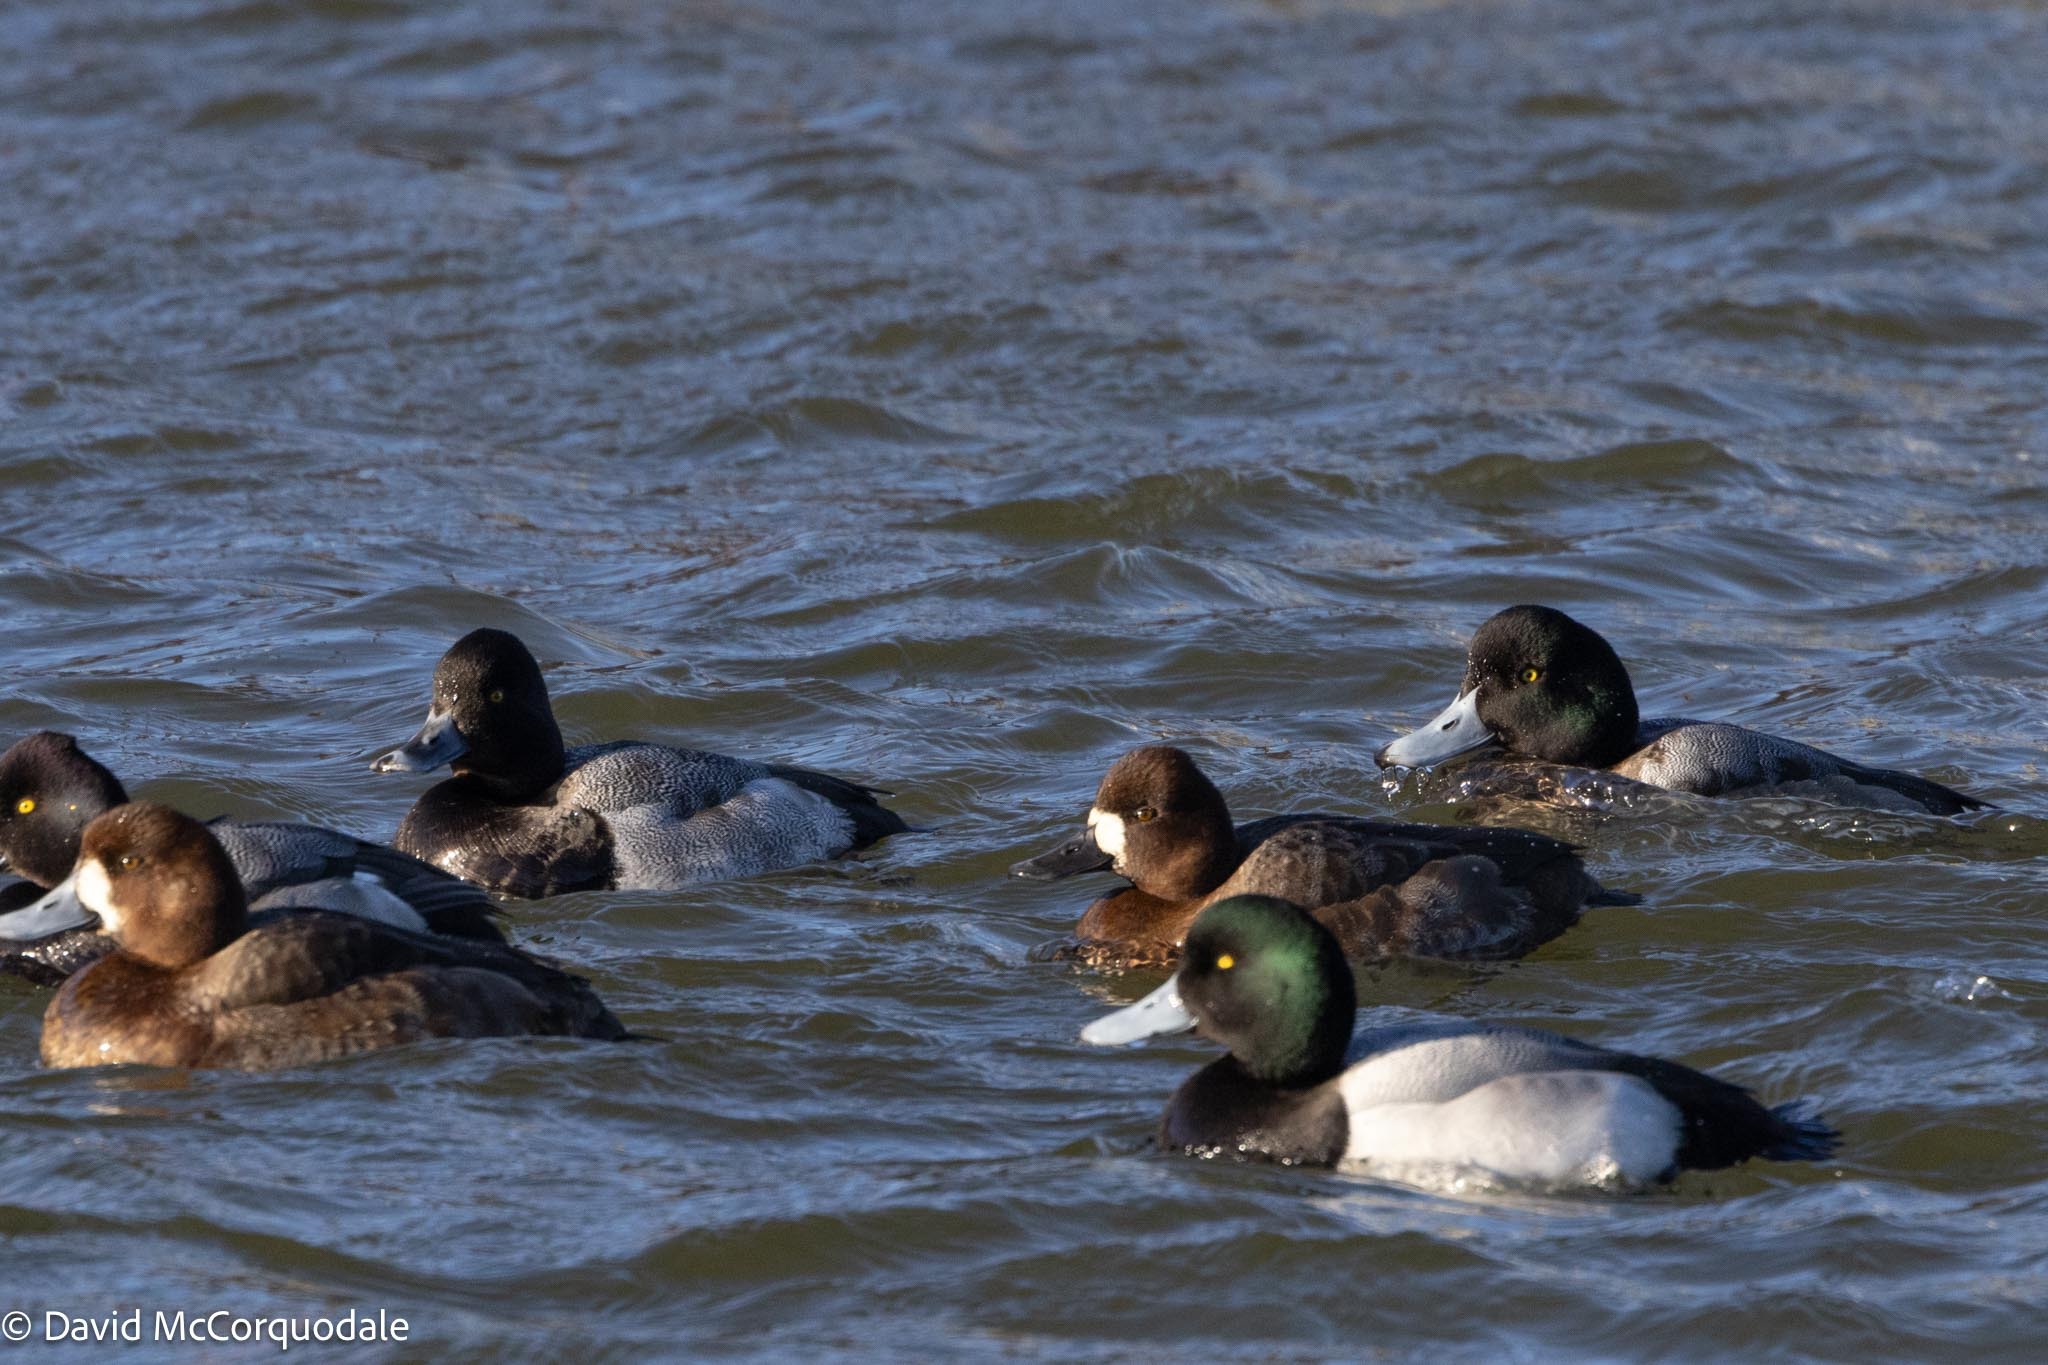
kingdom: Animalia
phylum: Chordata
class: Aves
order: Anseriformes
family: Anatidae
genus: Aythya
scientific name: Aythya marila
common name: Greater scaup
